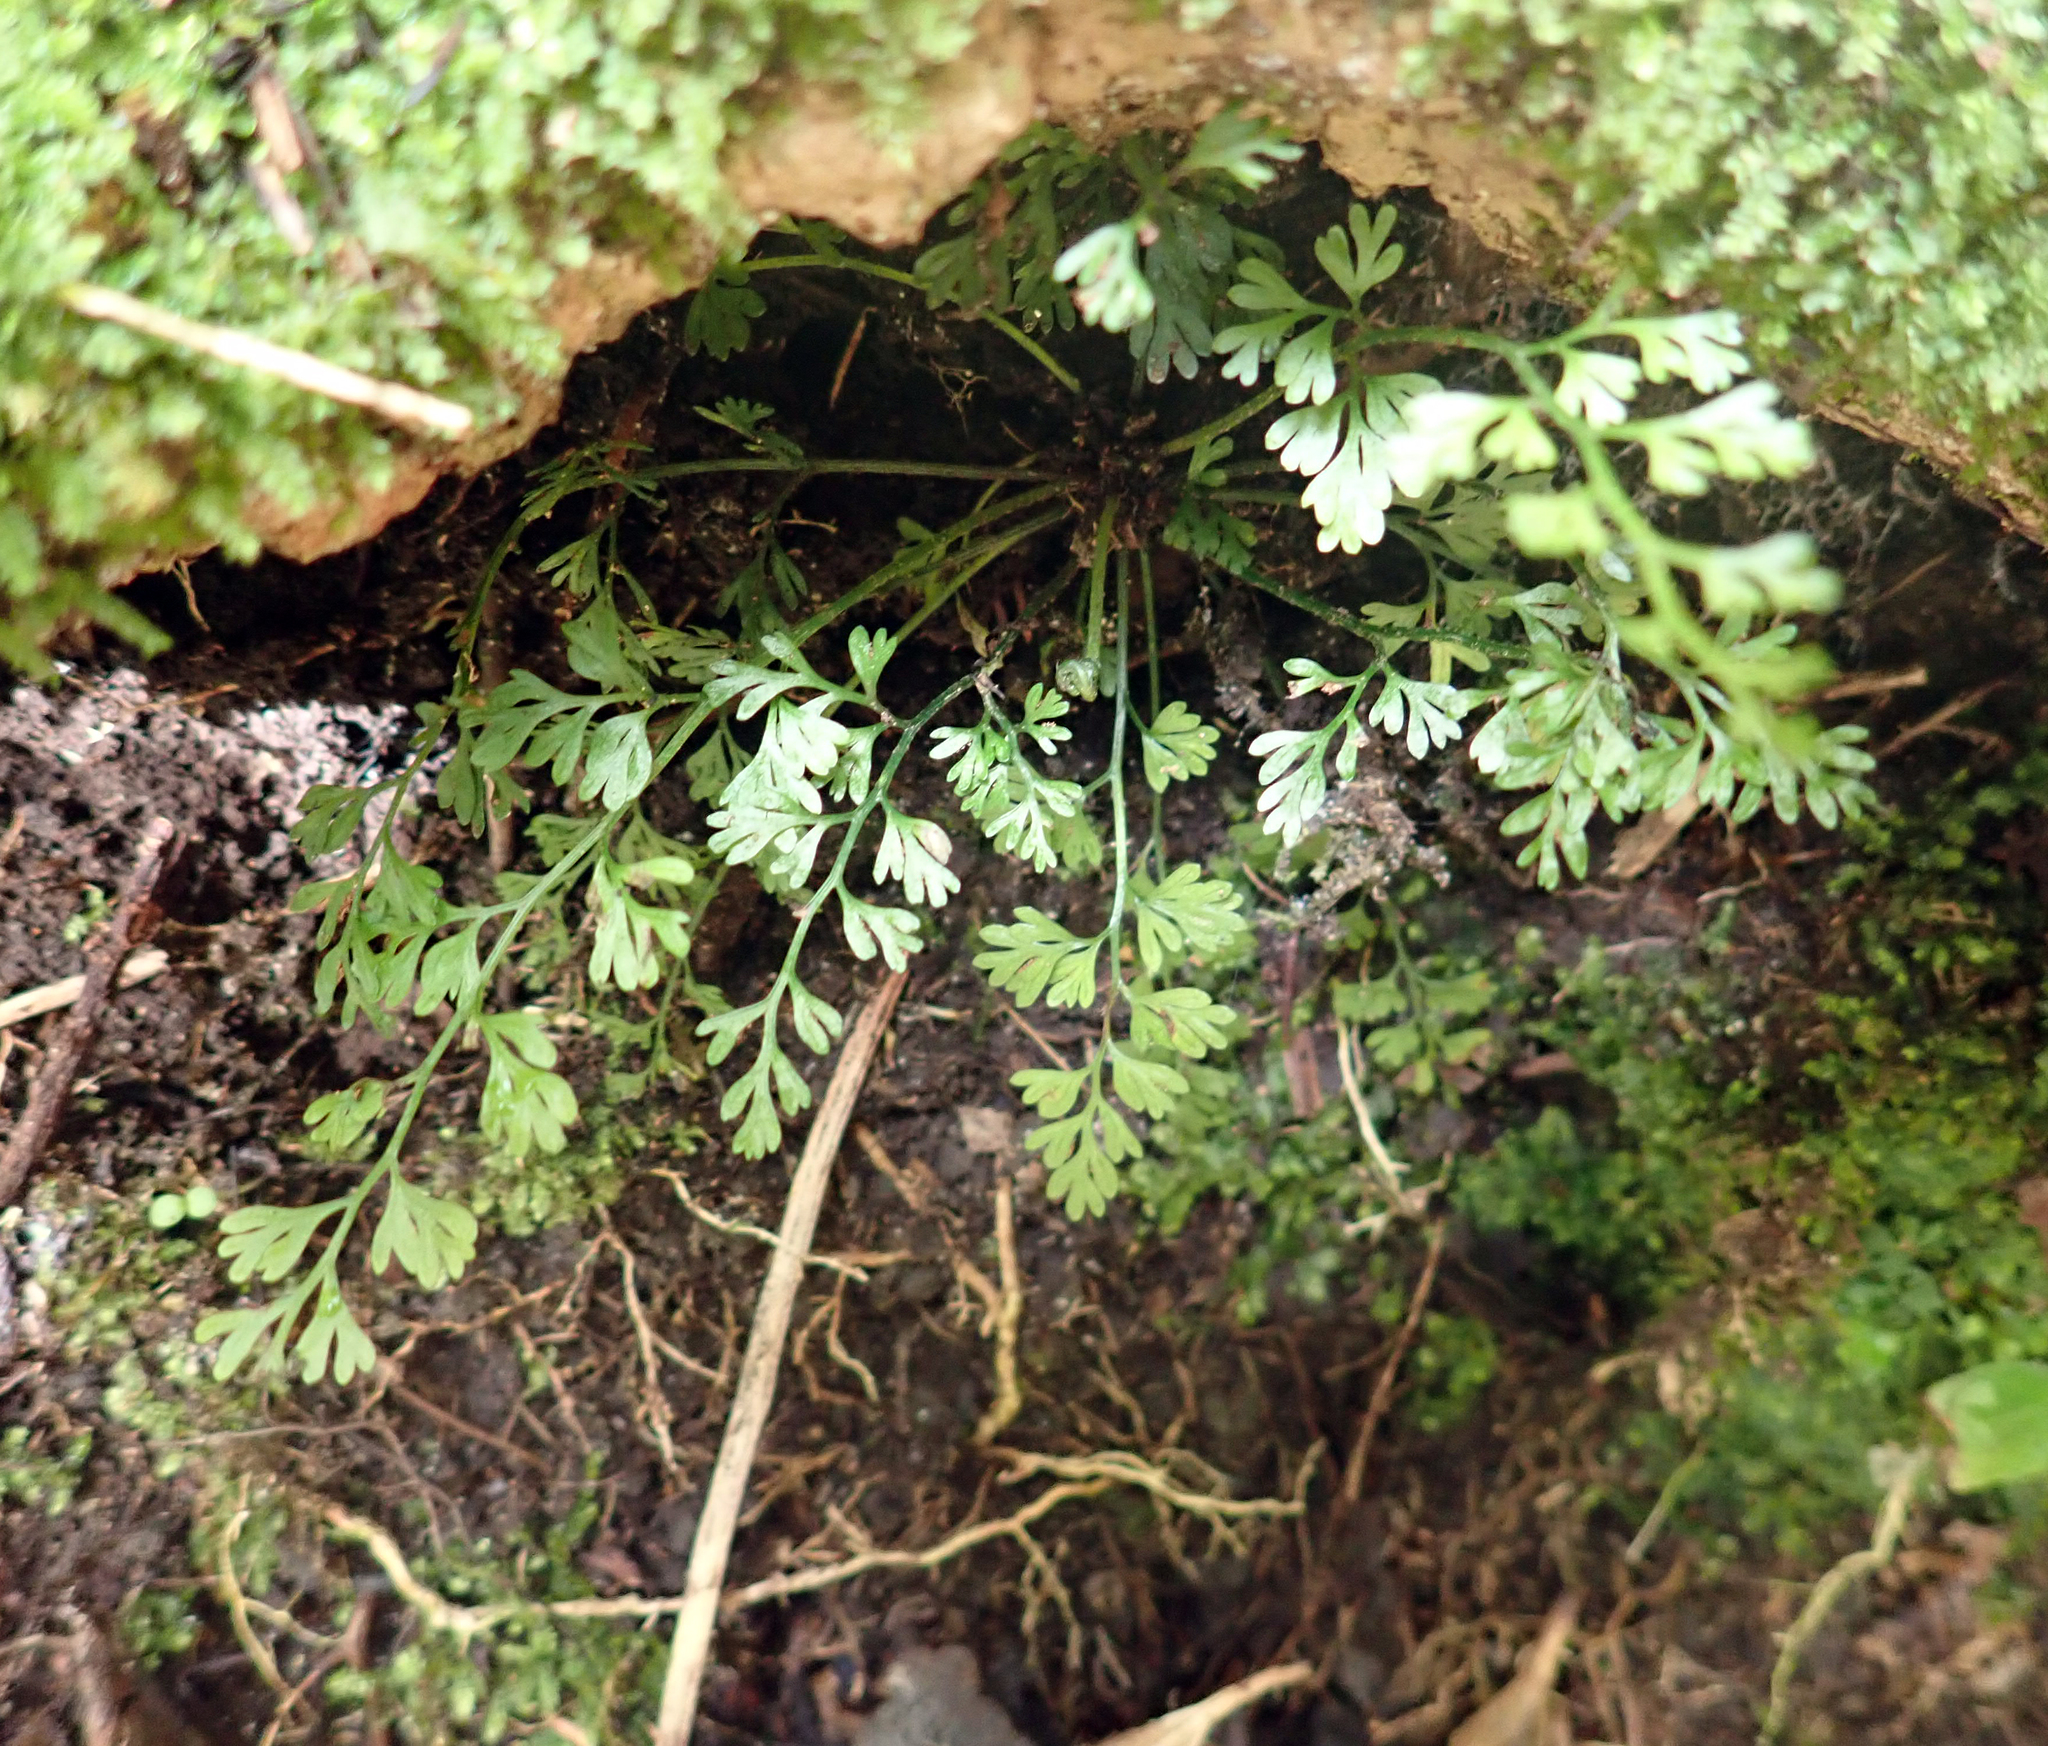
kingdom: Plantae
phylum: Tracheophyta
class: Polypodiopsida
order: Polypodiales
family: Aspleniaceae
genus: Asplenium
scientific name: Asplenium hookerianum
